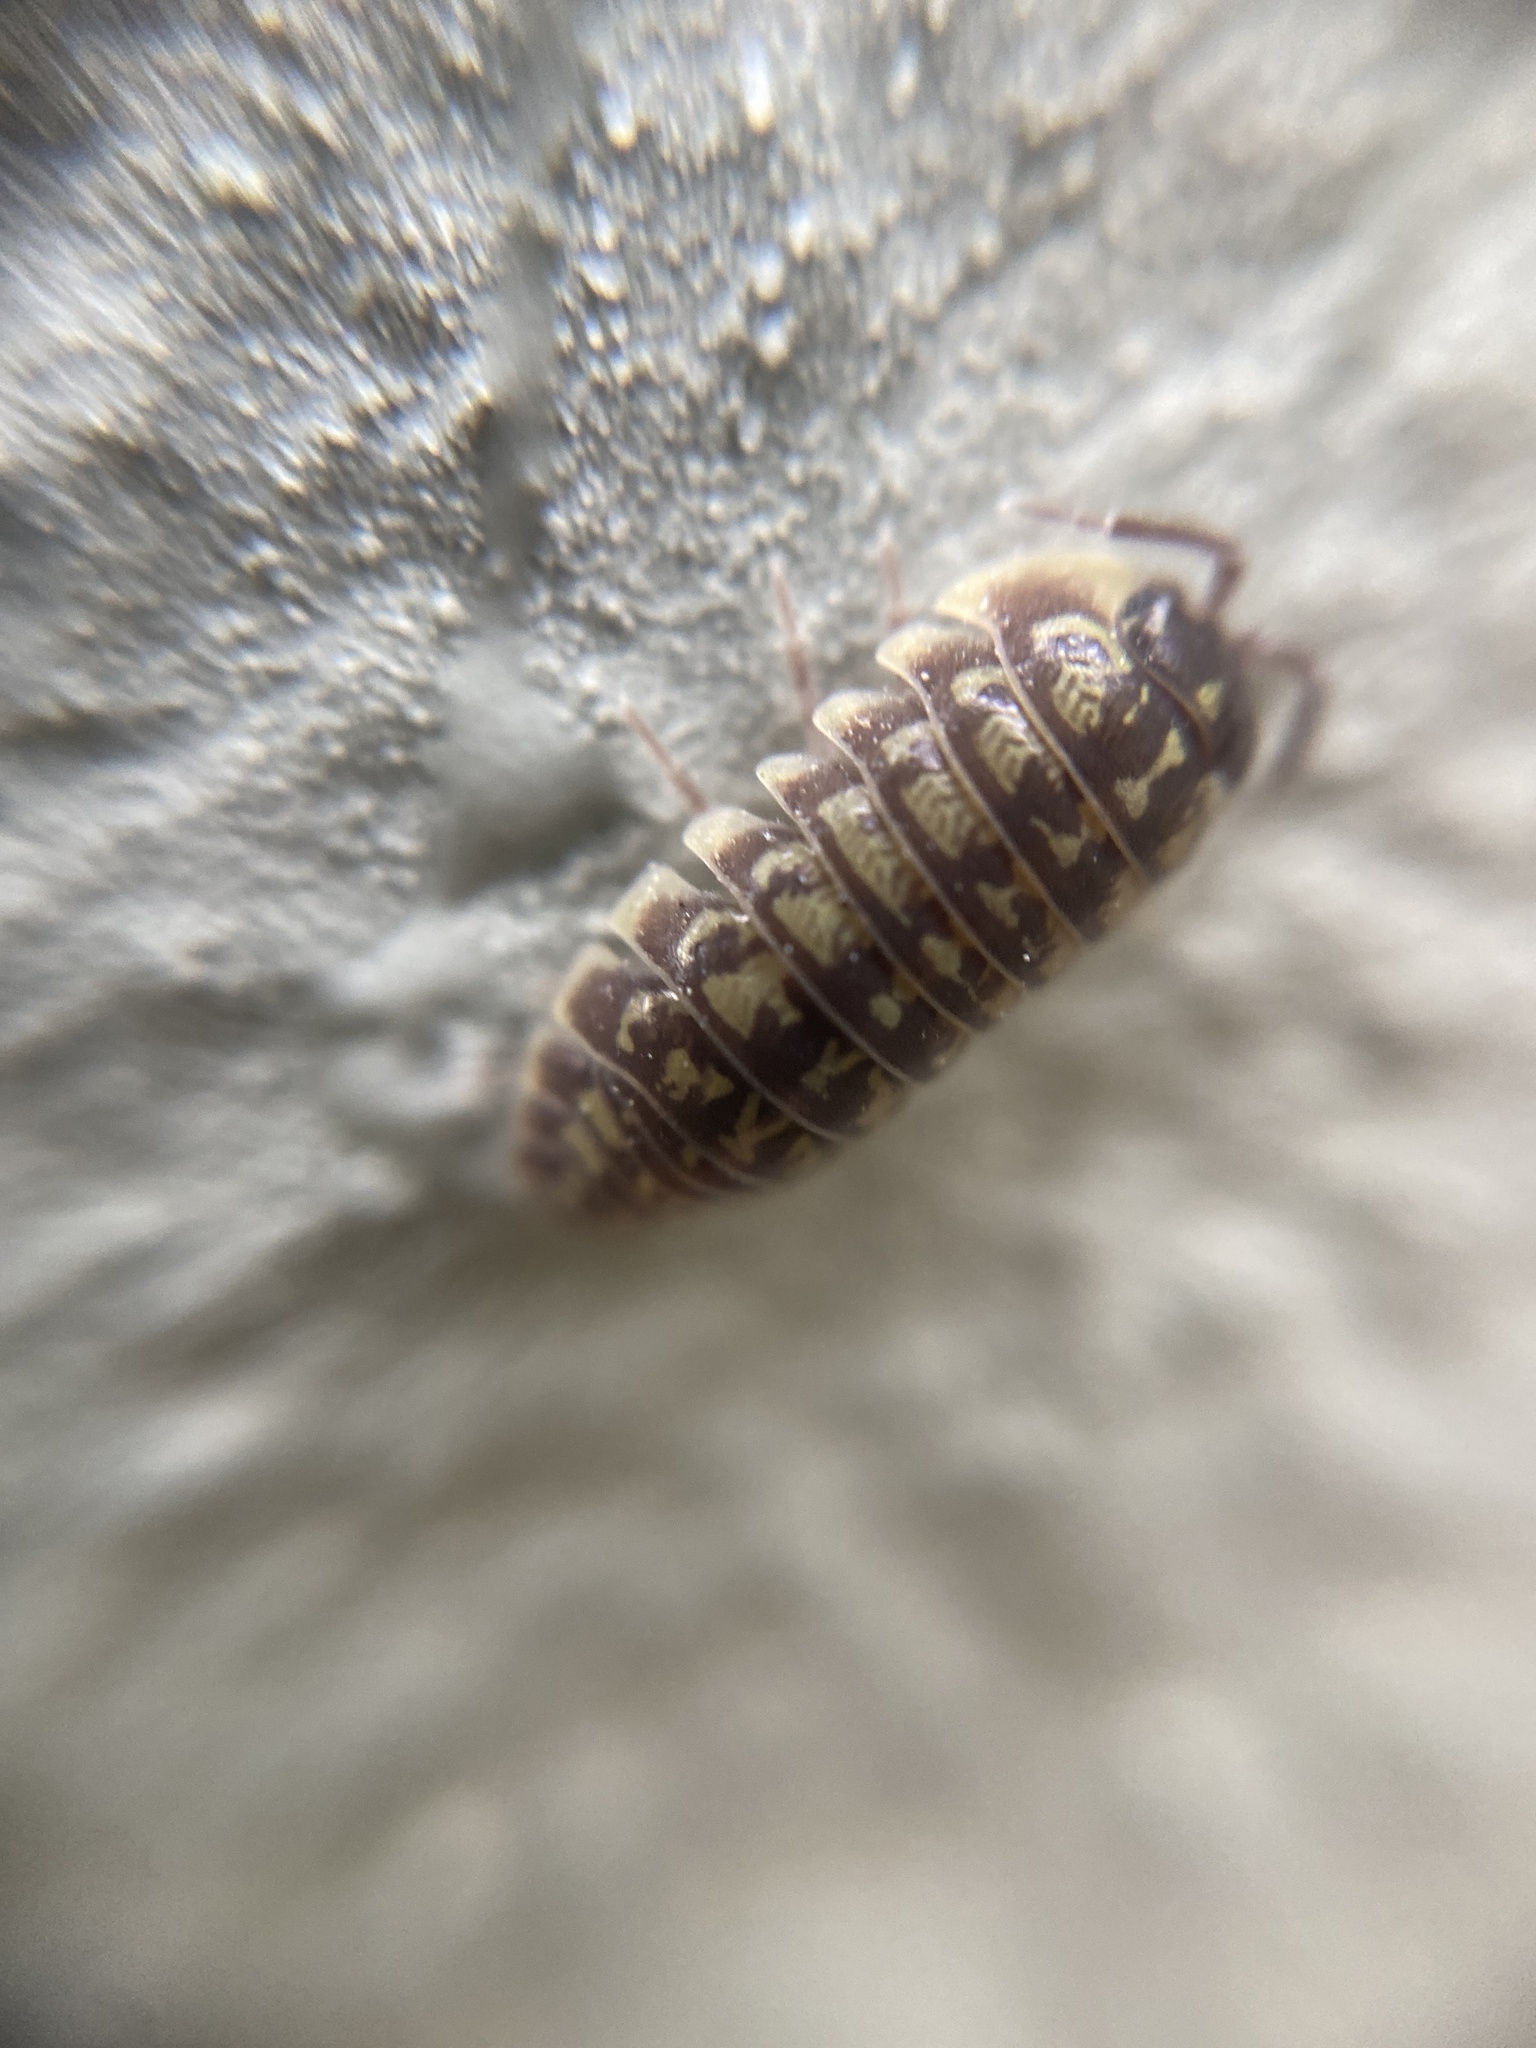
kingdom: Animalia
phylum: Arthropoda
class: Malacostraca
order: Isopoda
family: Armadillidiidae
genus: Armadillidium
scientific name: Armadillidium versicolor
